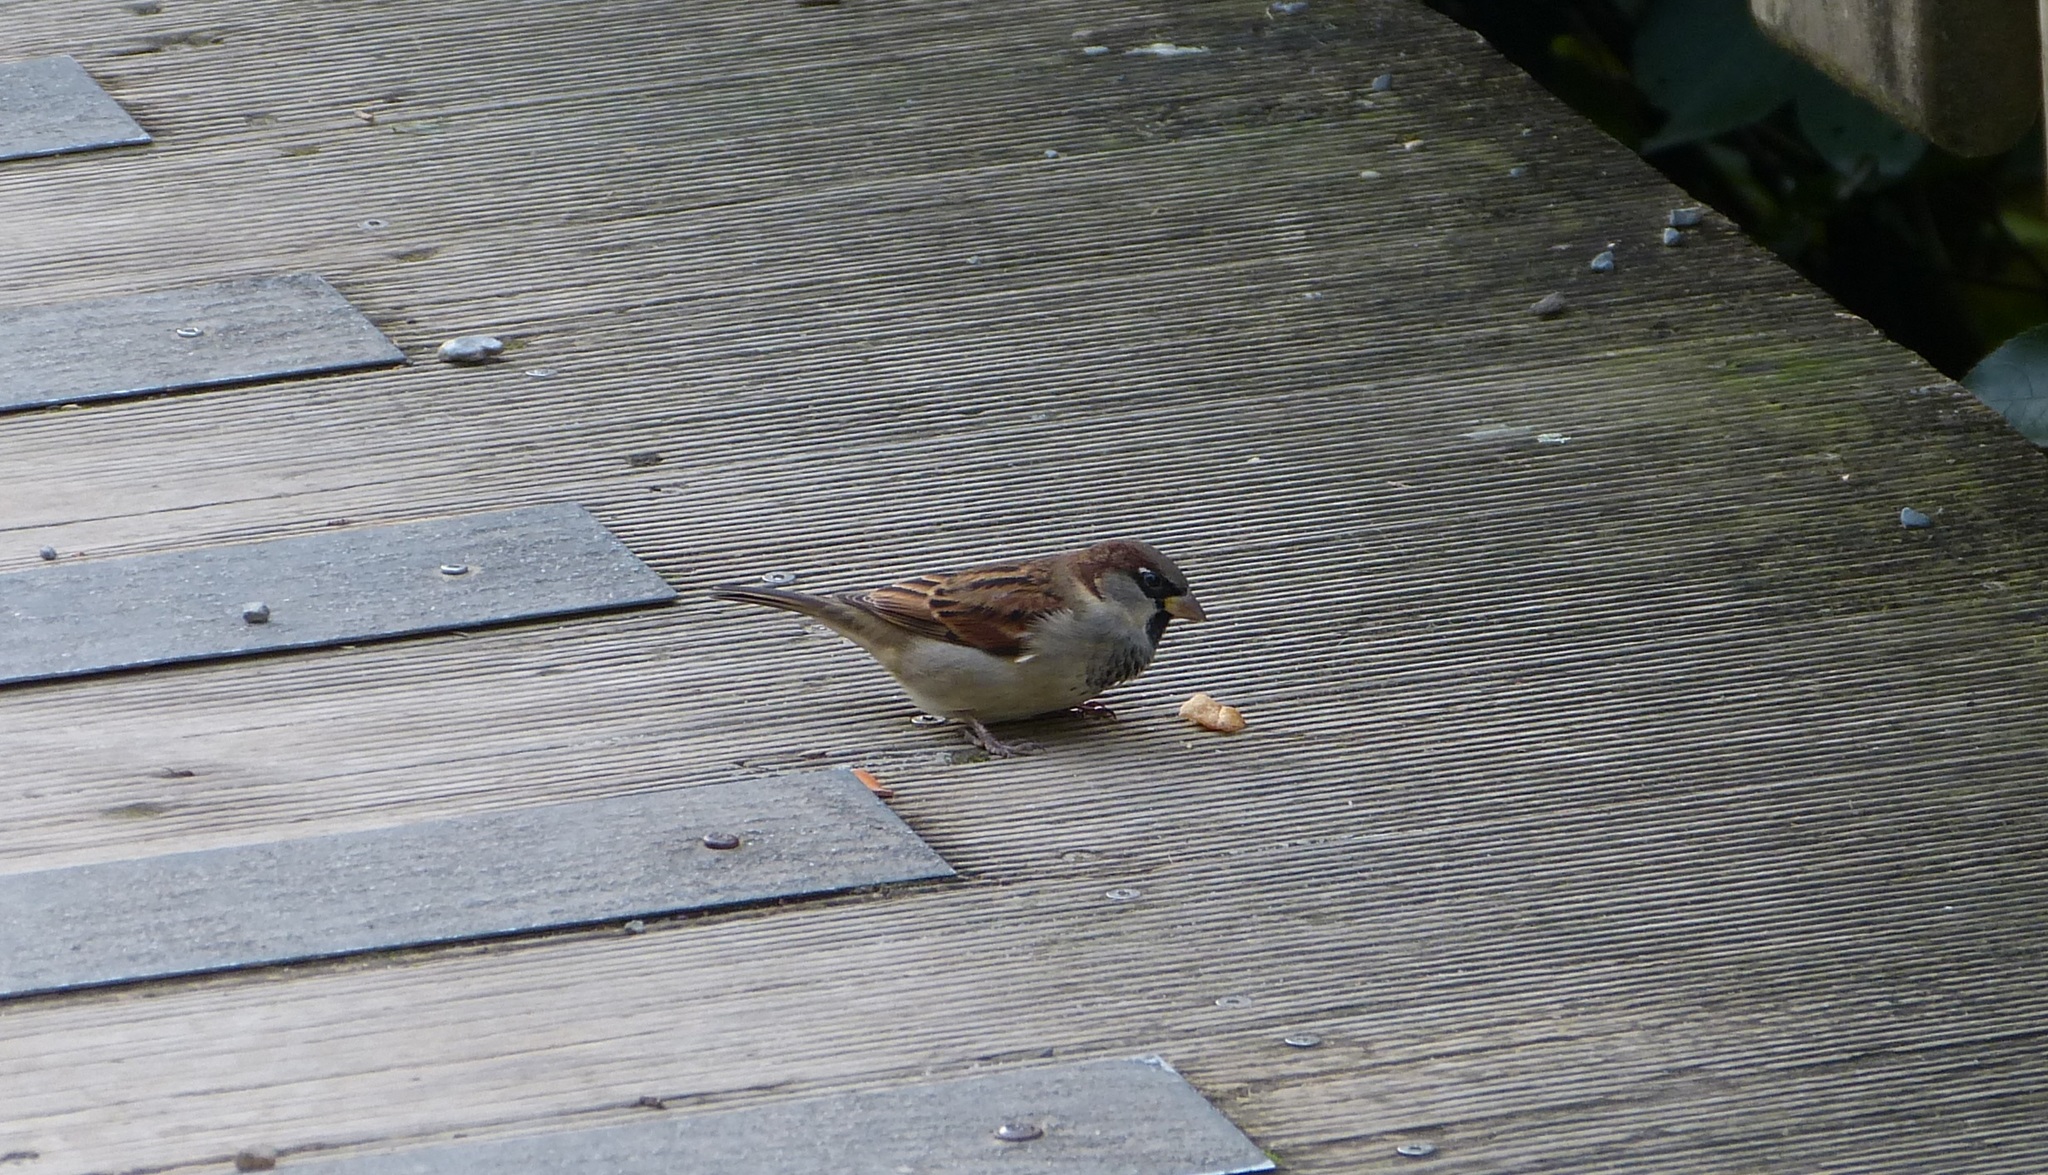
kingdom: Animalia
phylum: Chordata
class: Aves
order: Passeriformes
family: Passeridae
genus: Passer
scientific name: Passer domesticus
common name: House sparrow
